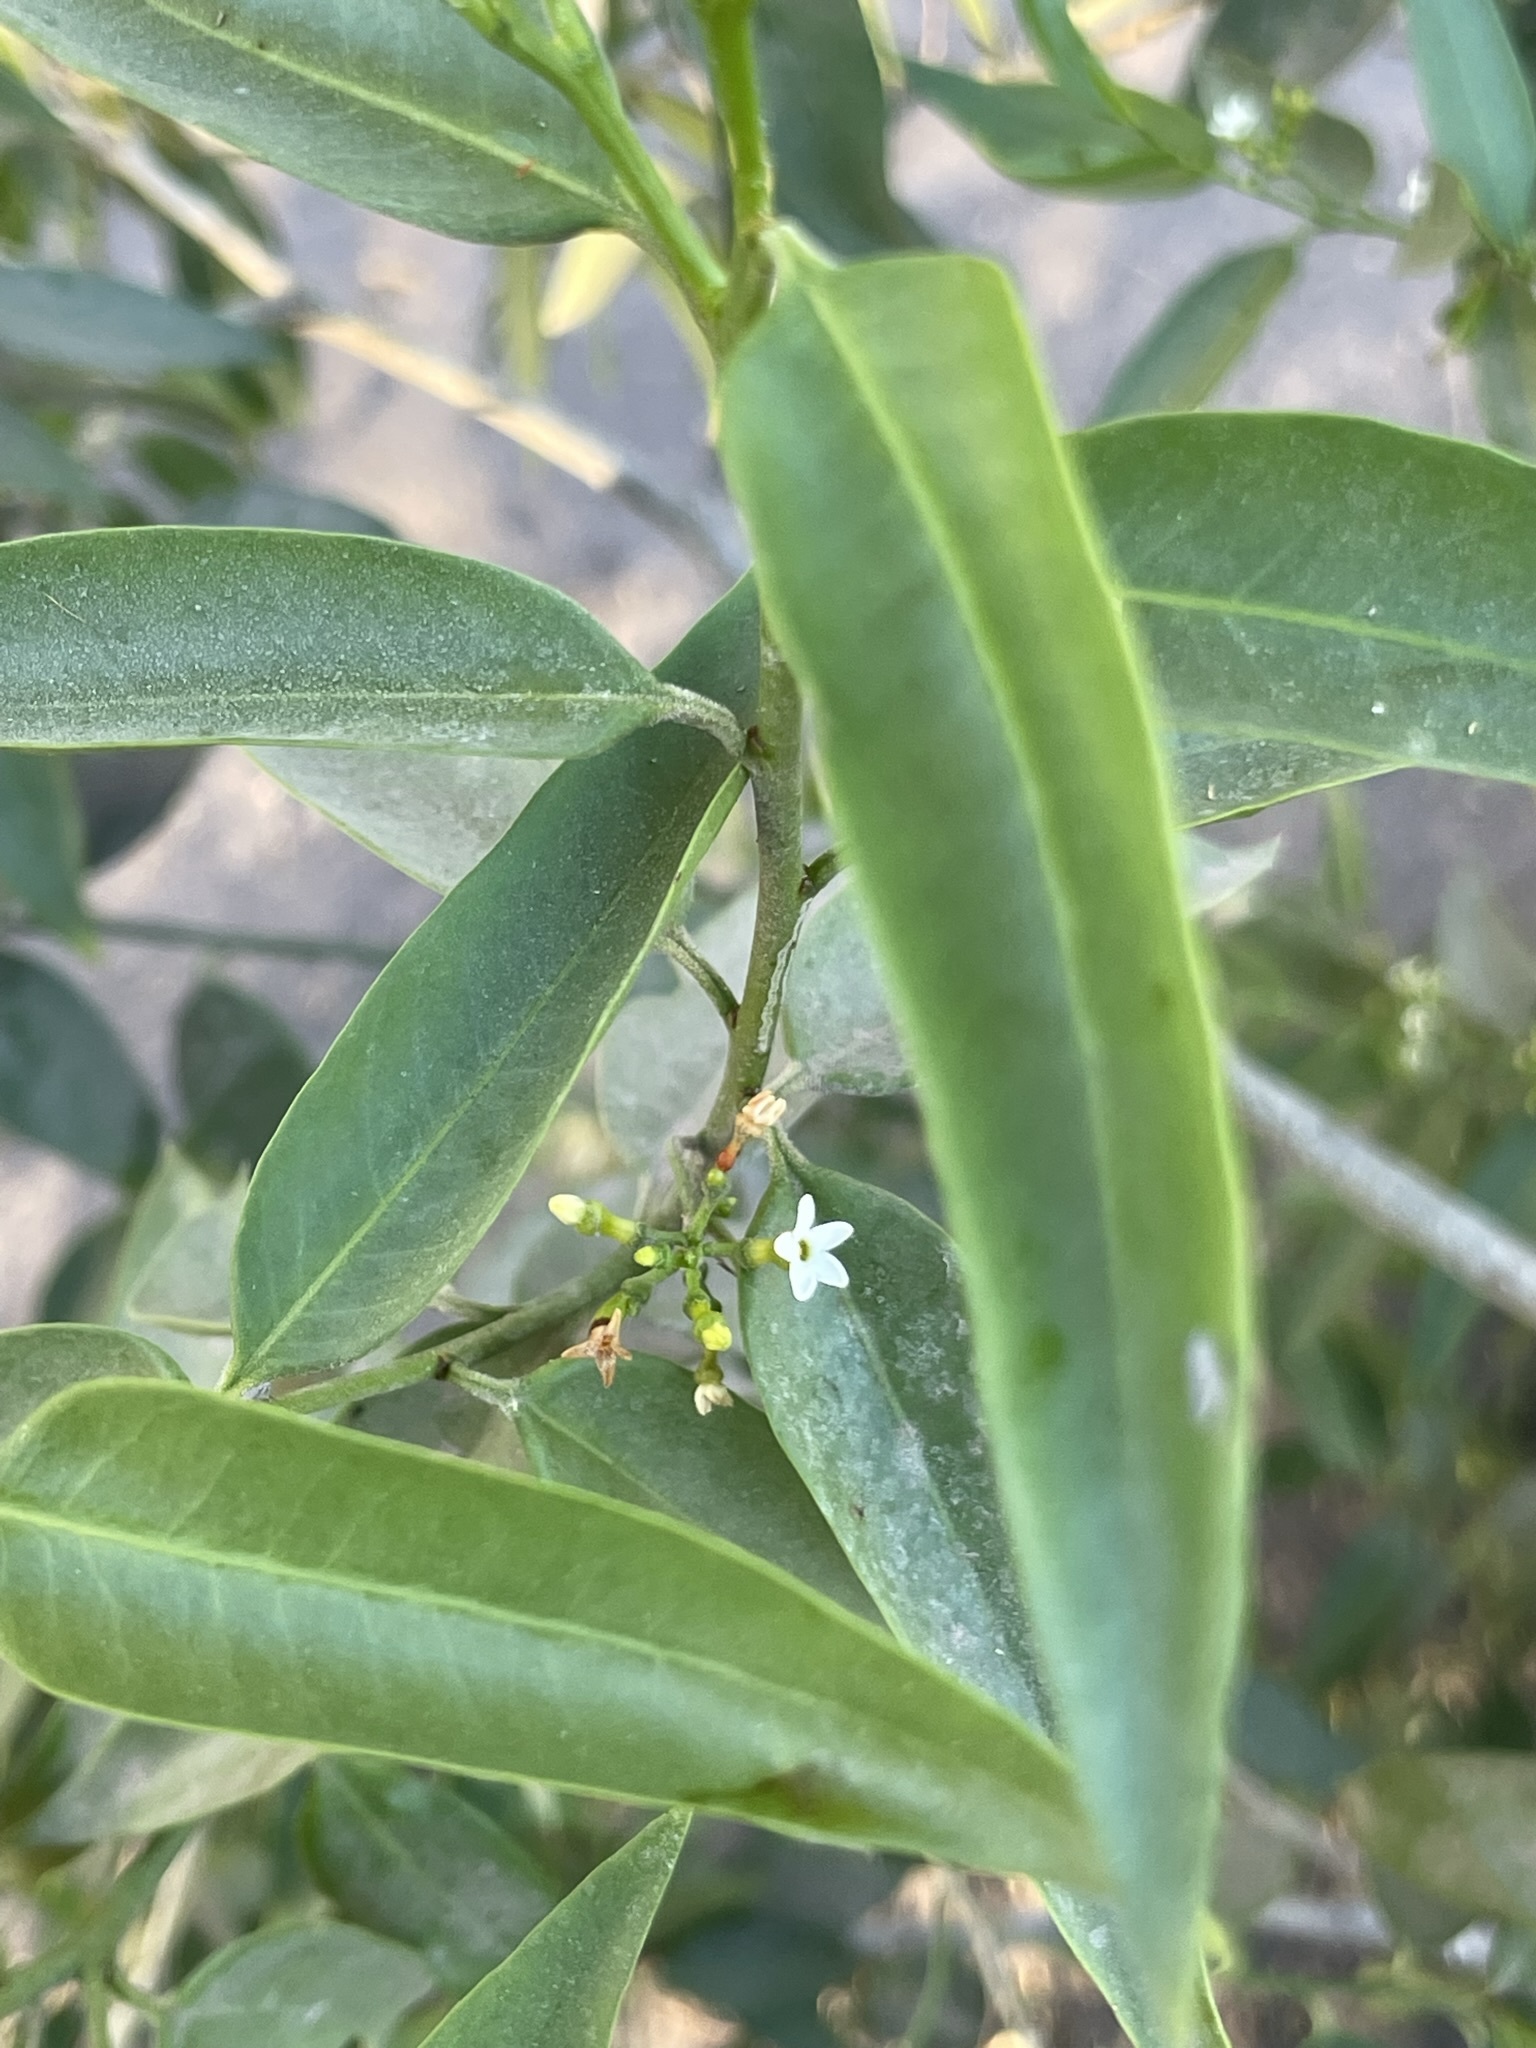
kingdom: Plantae
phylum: Tracheophyta
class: Magnoliopsida
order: Gentianales
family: Apocynaceae
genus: Vallesia
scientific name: Vallesia glabra
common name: Pearlberry
